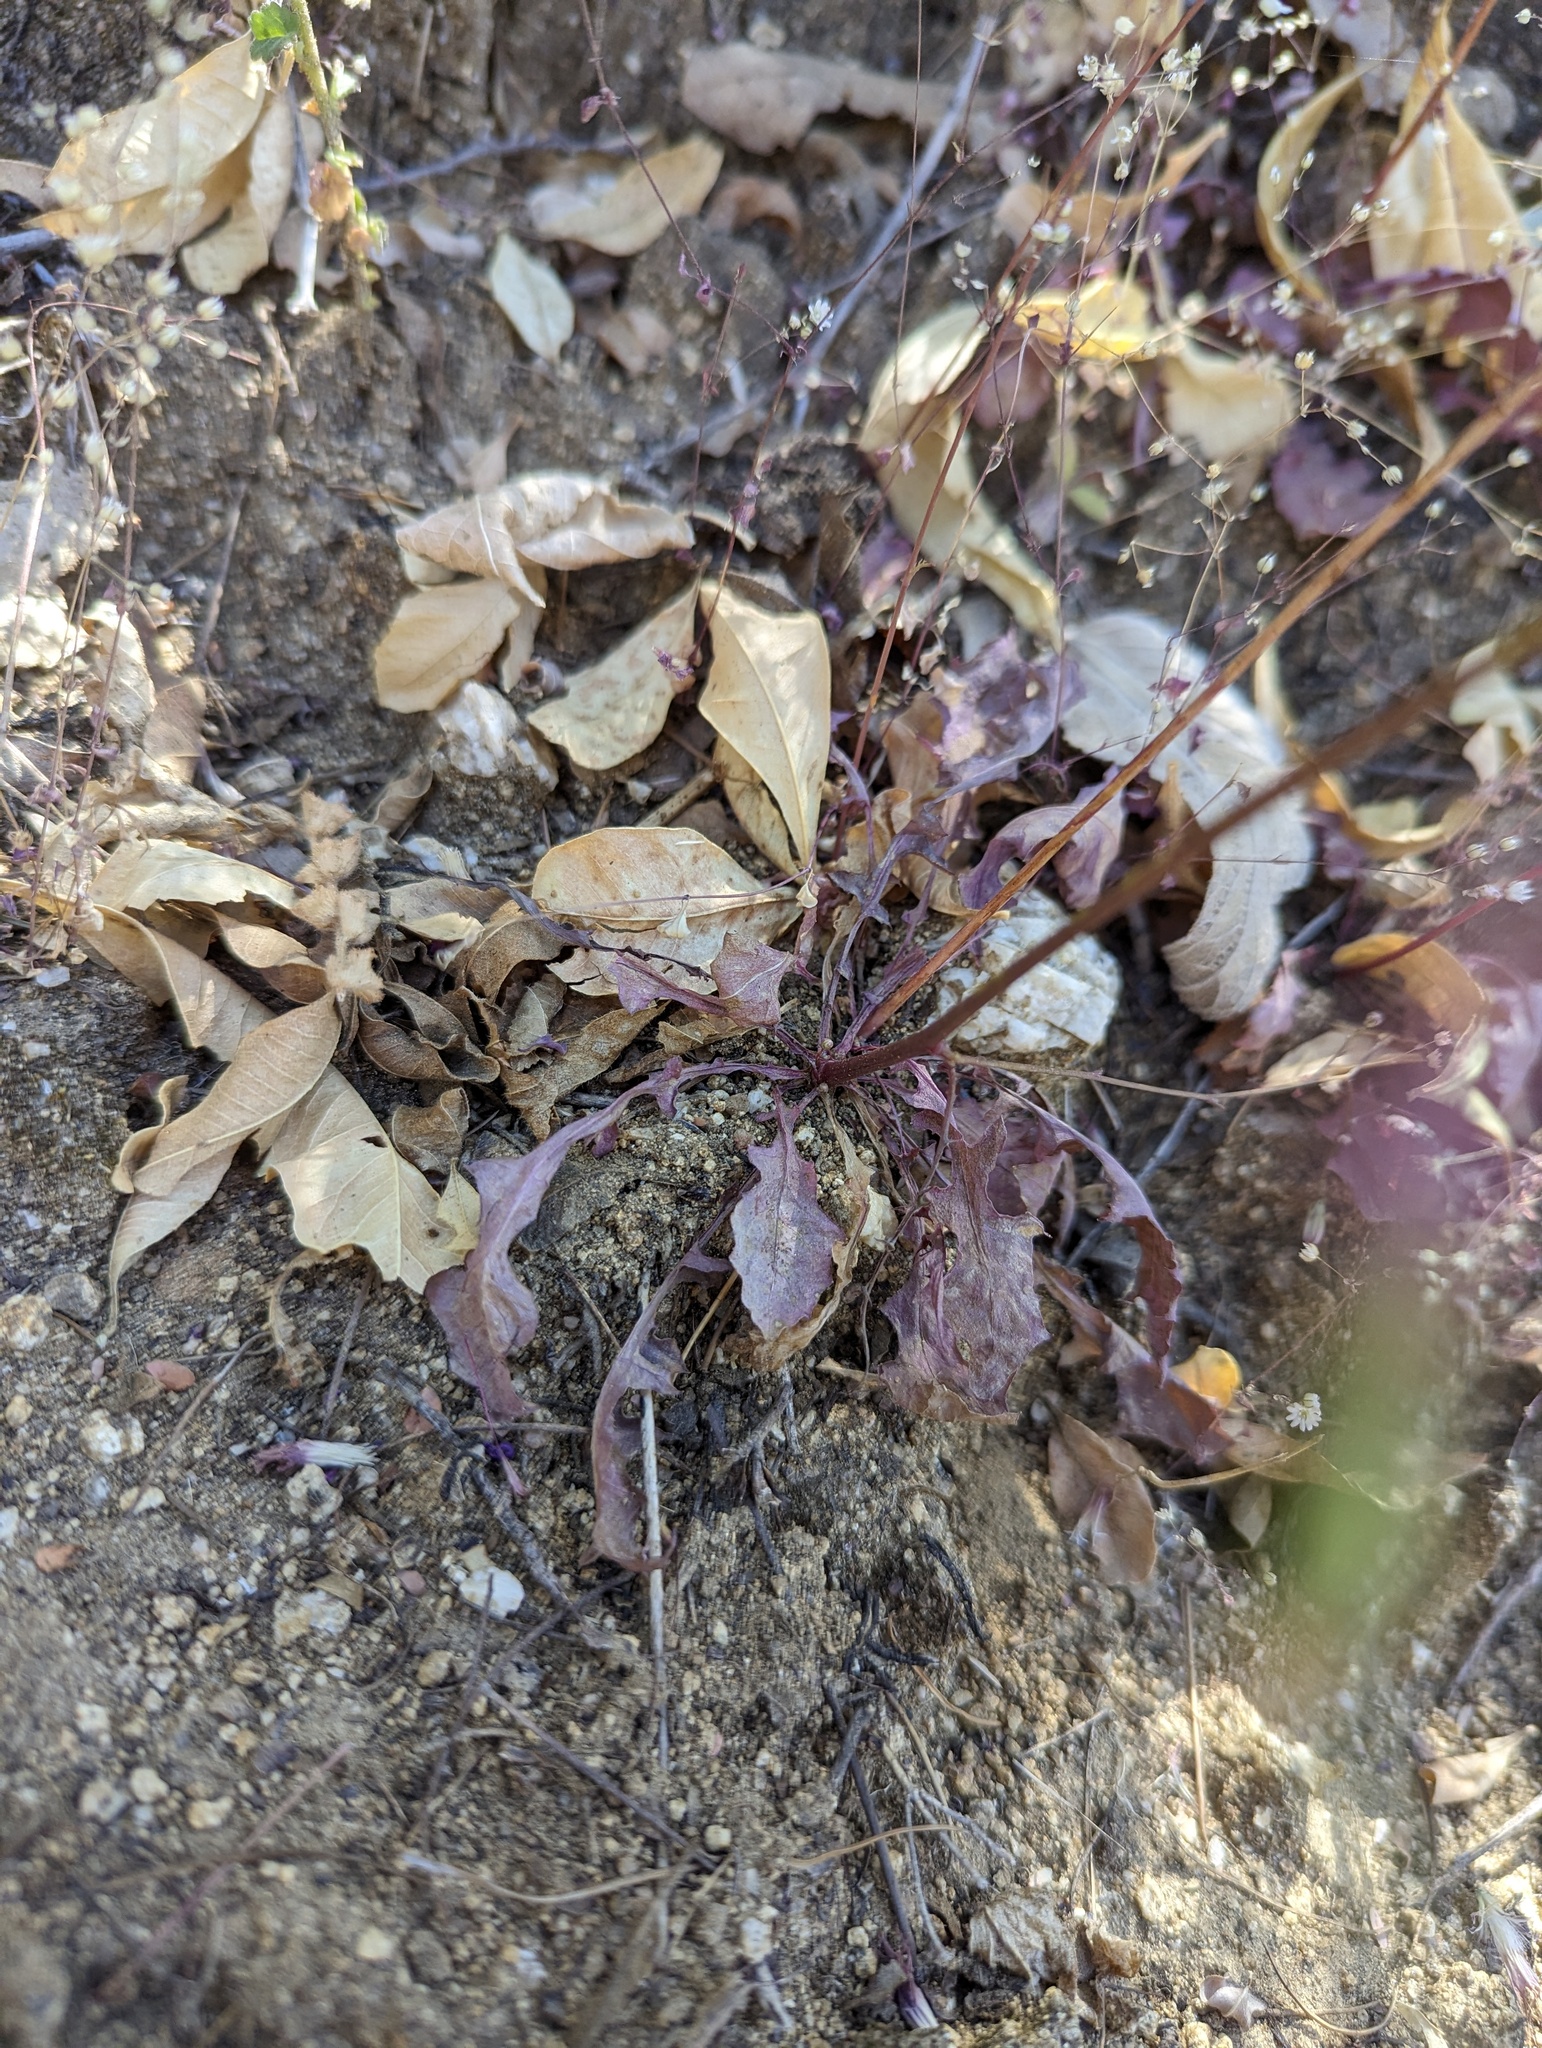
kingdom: Plantae
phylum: Tracheophyta
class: Magnoliopsida
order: Asterales
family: Asteraceae
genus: Malacothrix
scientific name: Malacothrix xanti
